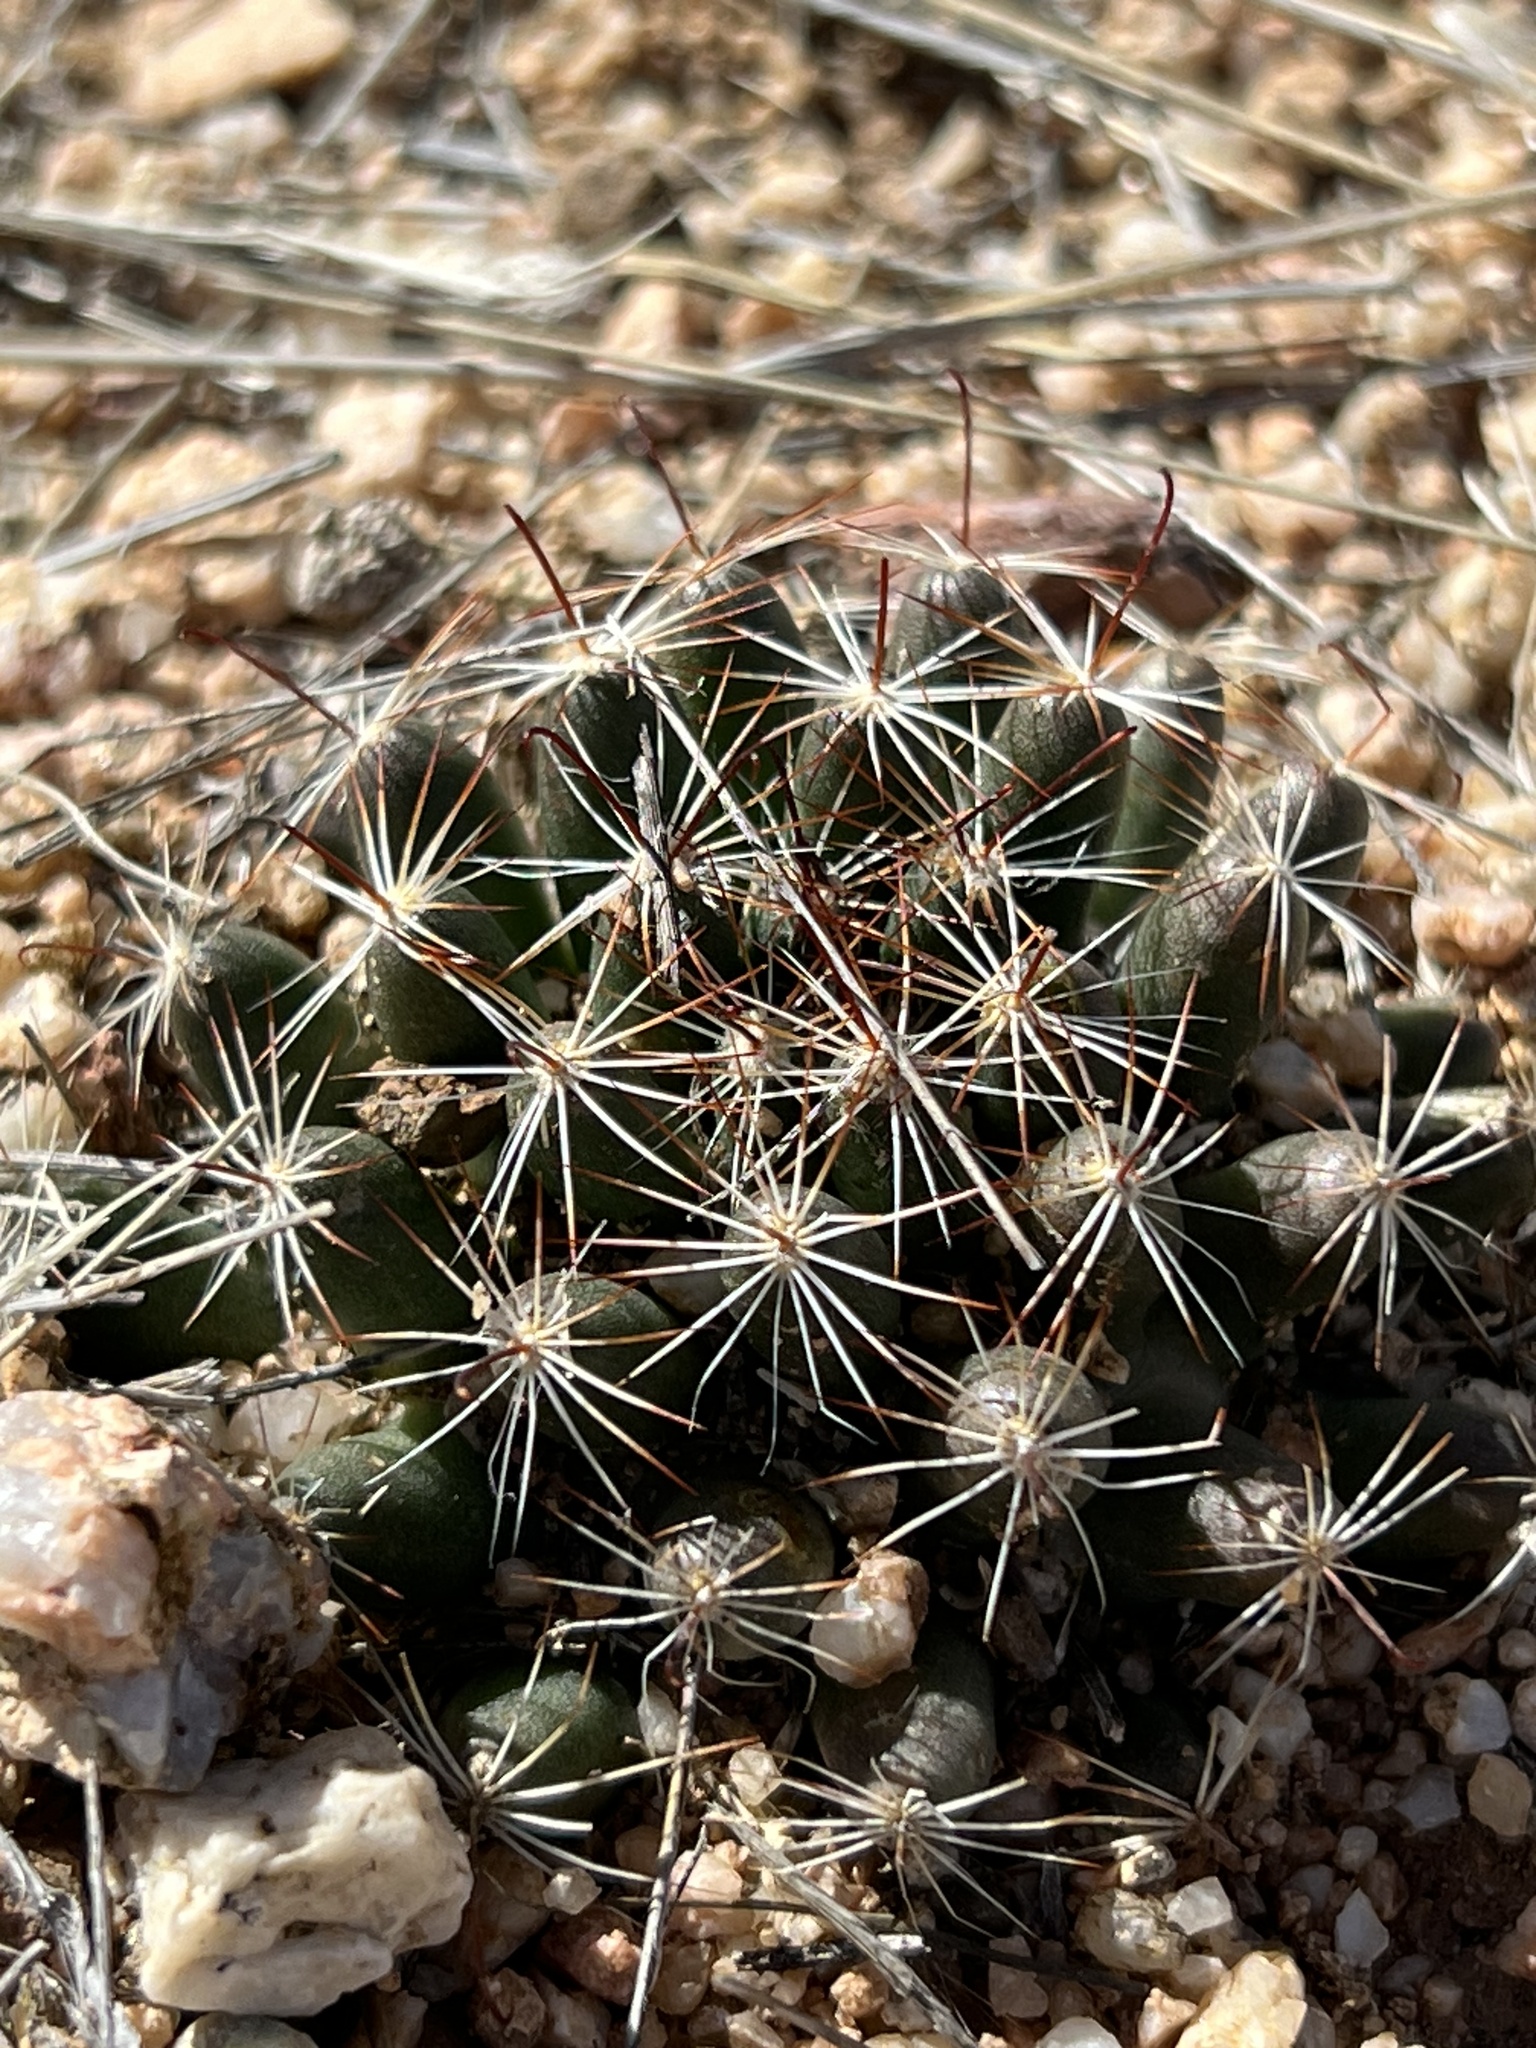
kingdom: Plantae
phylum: Tracheophyta
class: Magnoliopsida
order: Caryophyllales
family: Cactaceae
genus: Cochemiea
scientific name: Cochemiea wrightii
